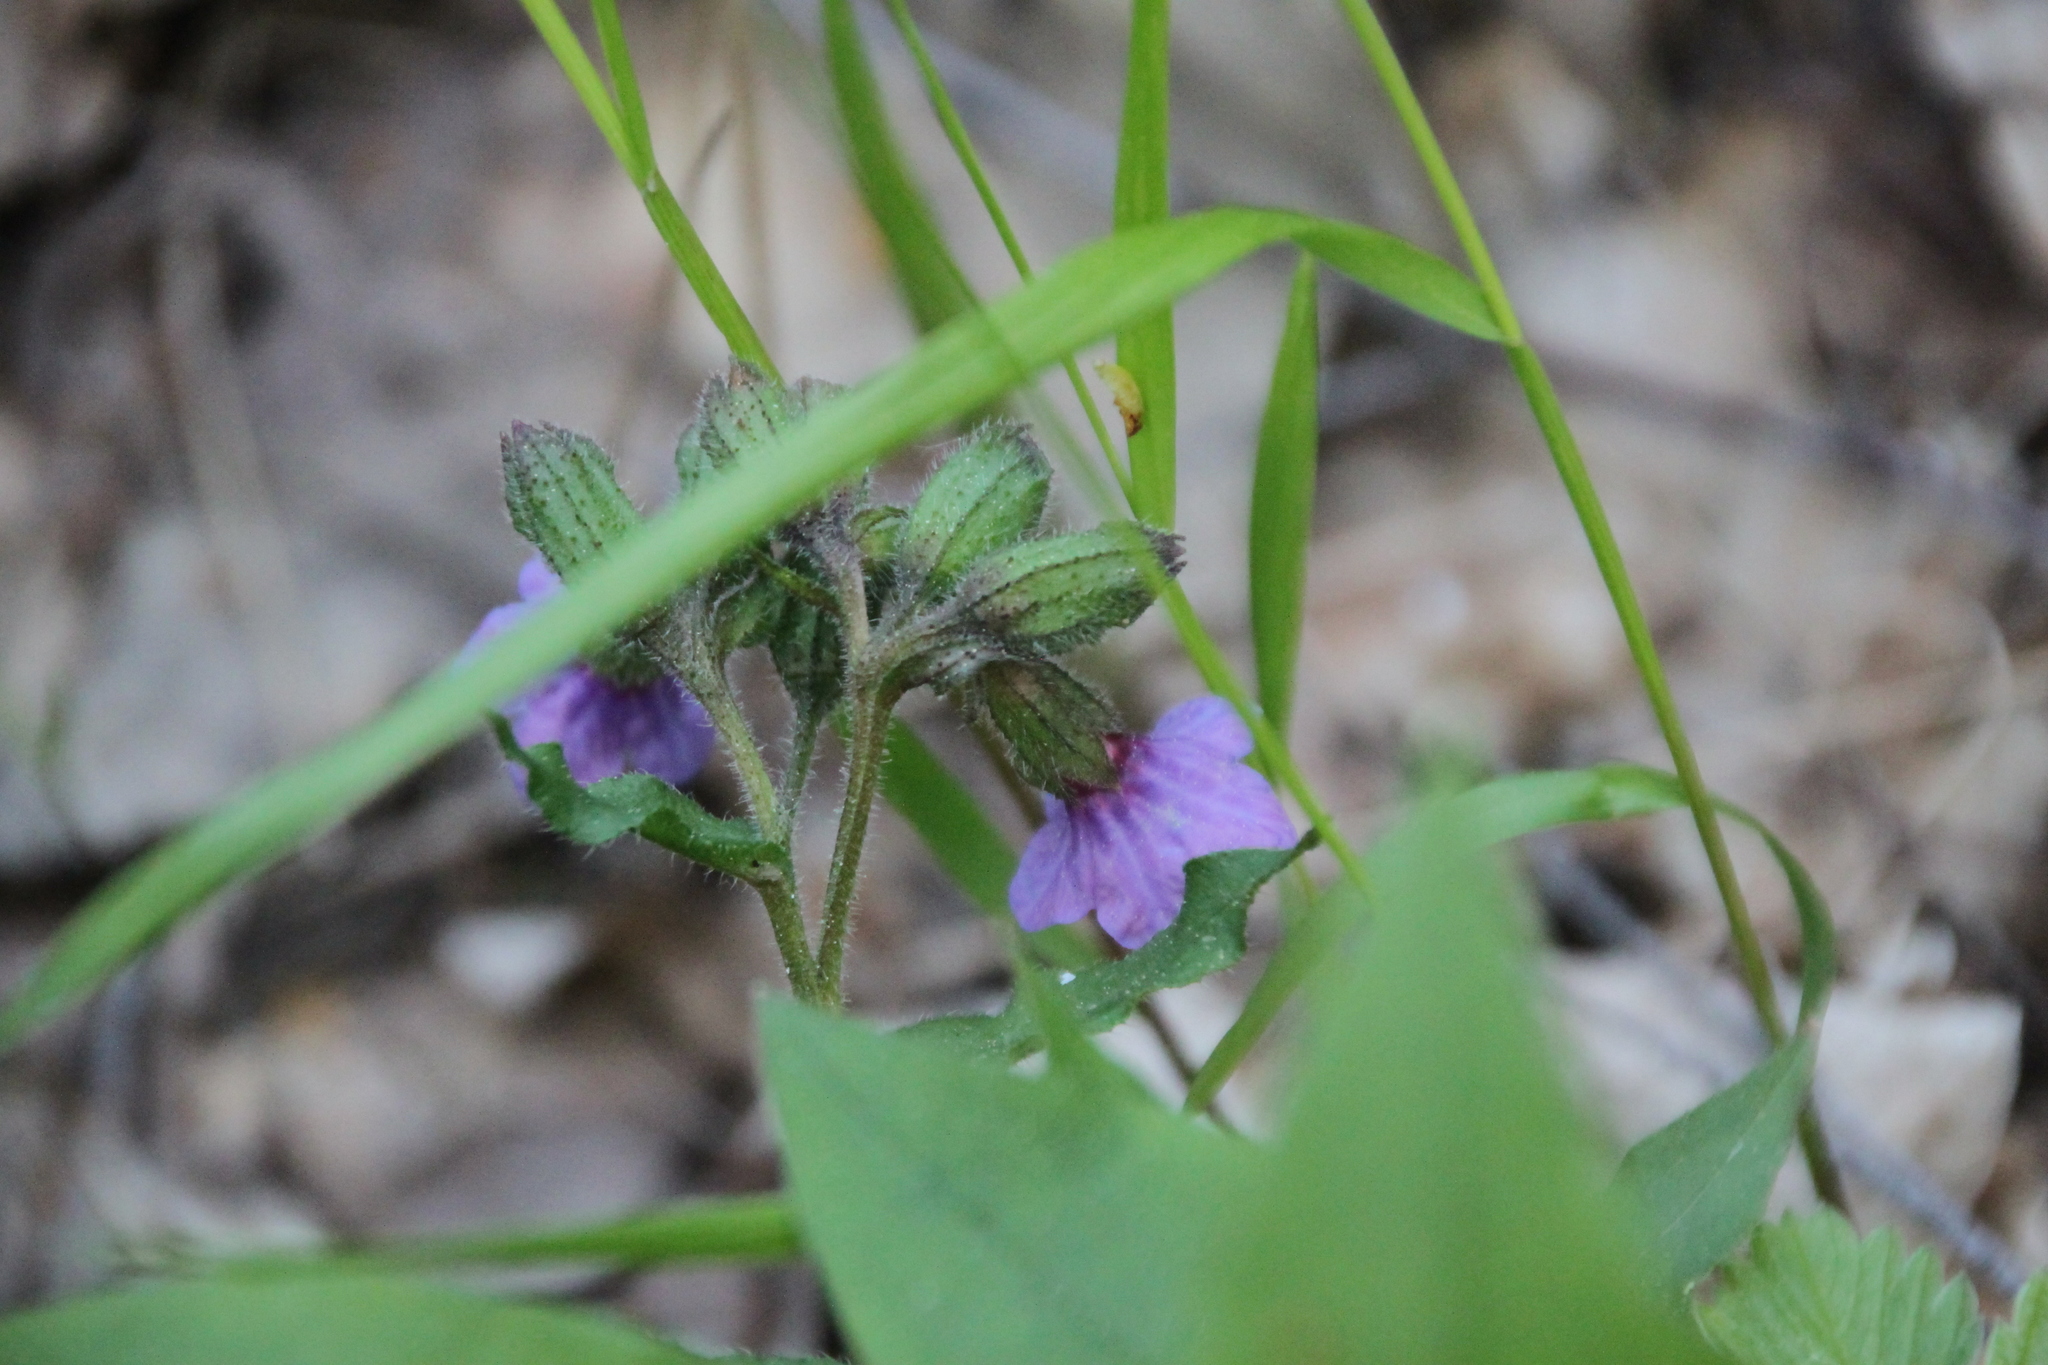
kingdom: Plantae
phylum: Tracheophyta
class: Magnoliopsida
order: Boraginales
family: Boraginaceae
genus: Pulmonaria
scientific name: Pulmonaria obscura
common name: Suffolk lungwort
